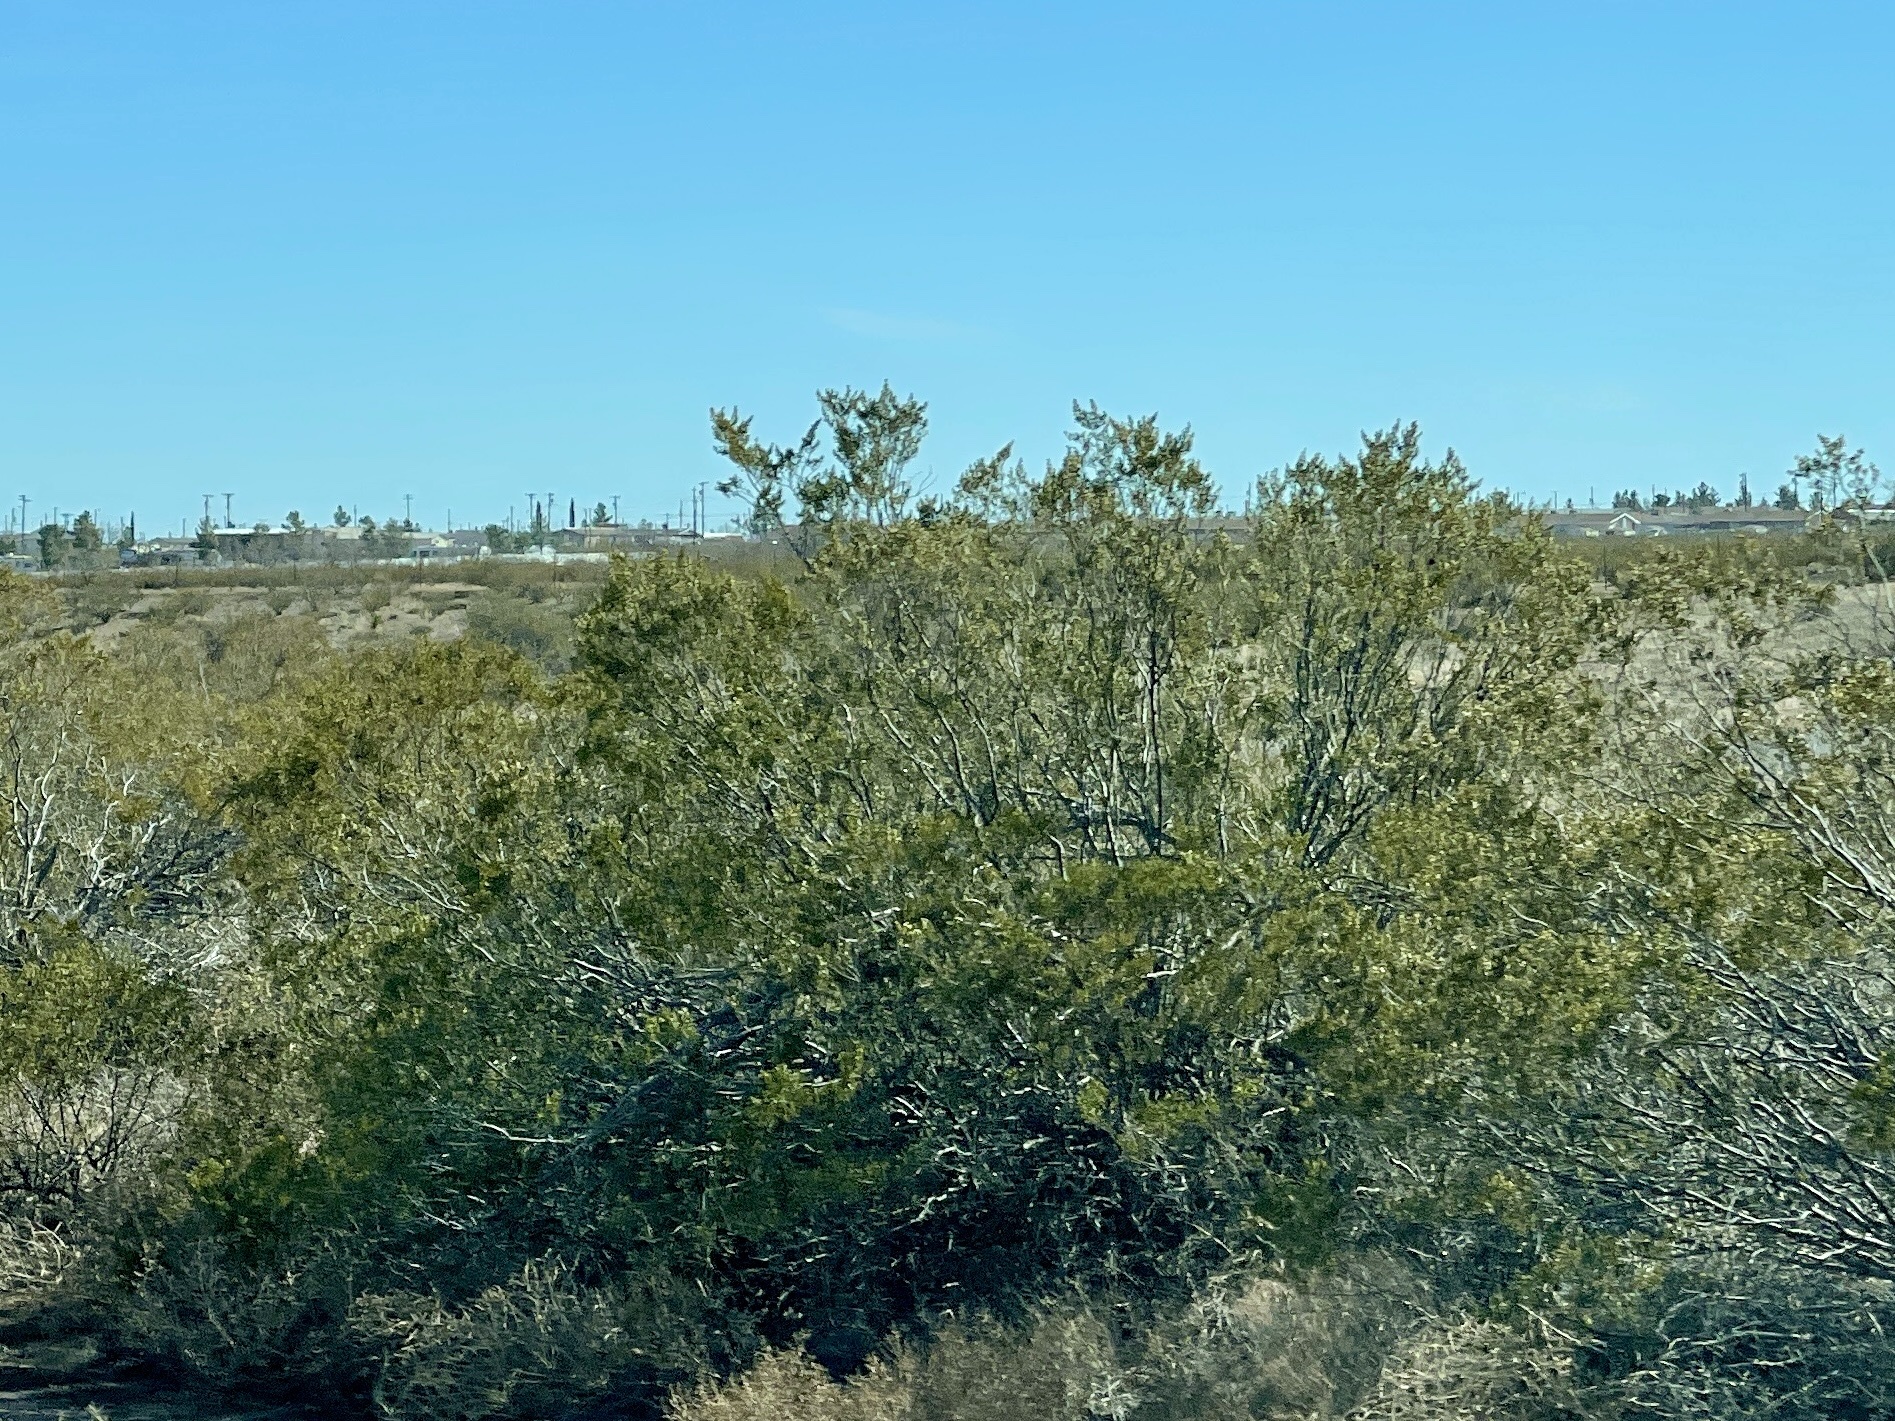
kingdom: Plantae
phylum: Tracheophyta
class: Magnoliopsida
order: Zygophyllales
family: Zygophyllaceae
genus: Larrea
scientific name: Larrea tridentata
